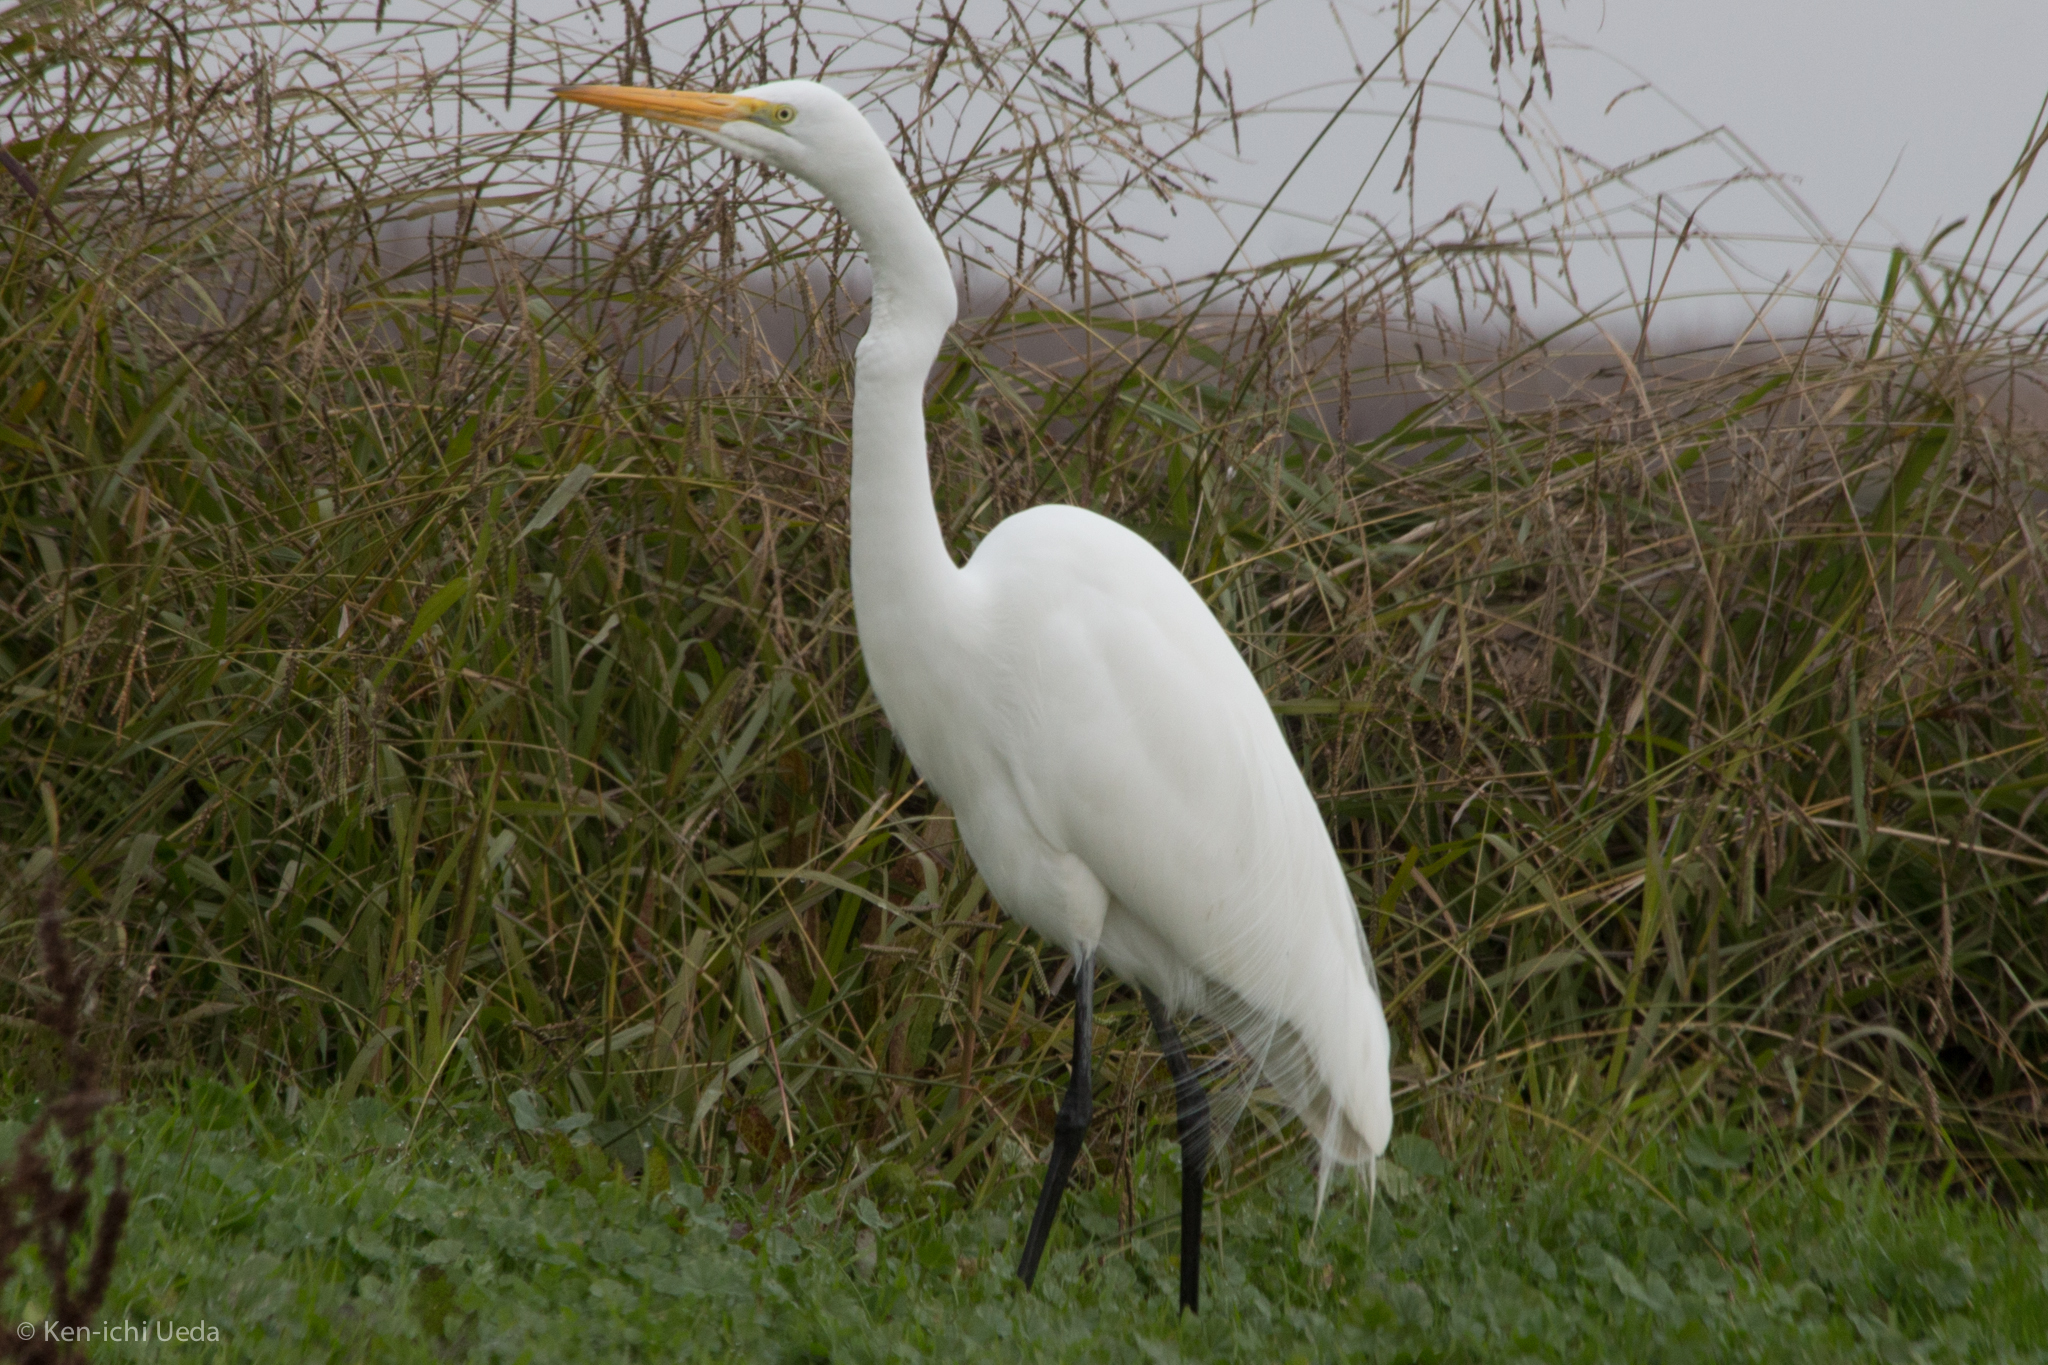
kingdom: Animalia
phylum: Chordata
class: Aves
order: Pelecaniformes
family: Ardeidae
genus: Ardea
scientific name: Ardea alba
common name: Great egret
